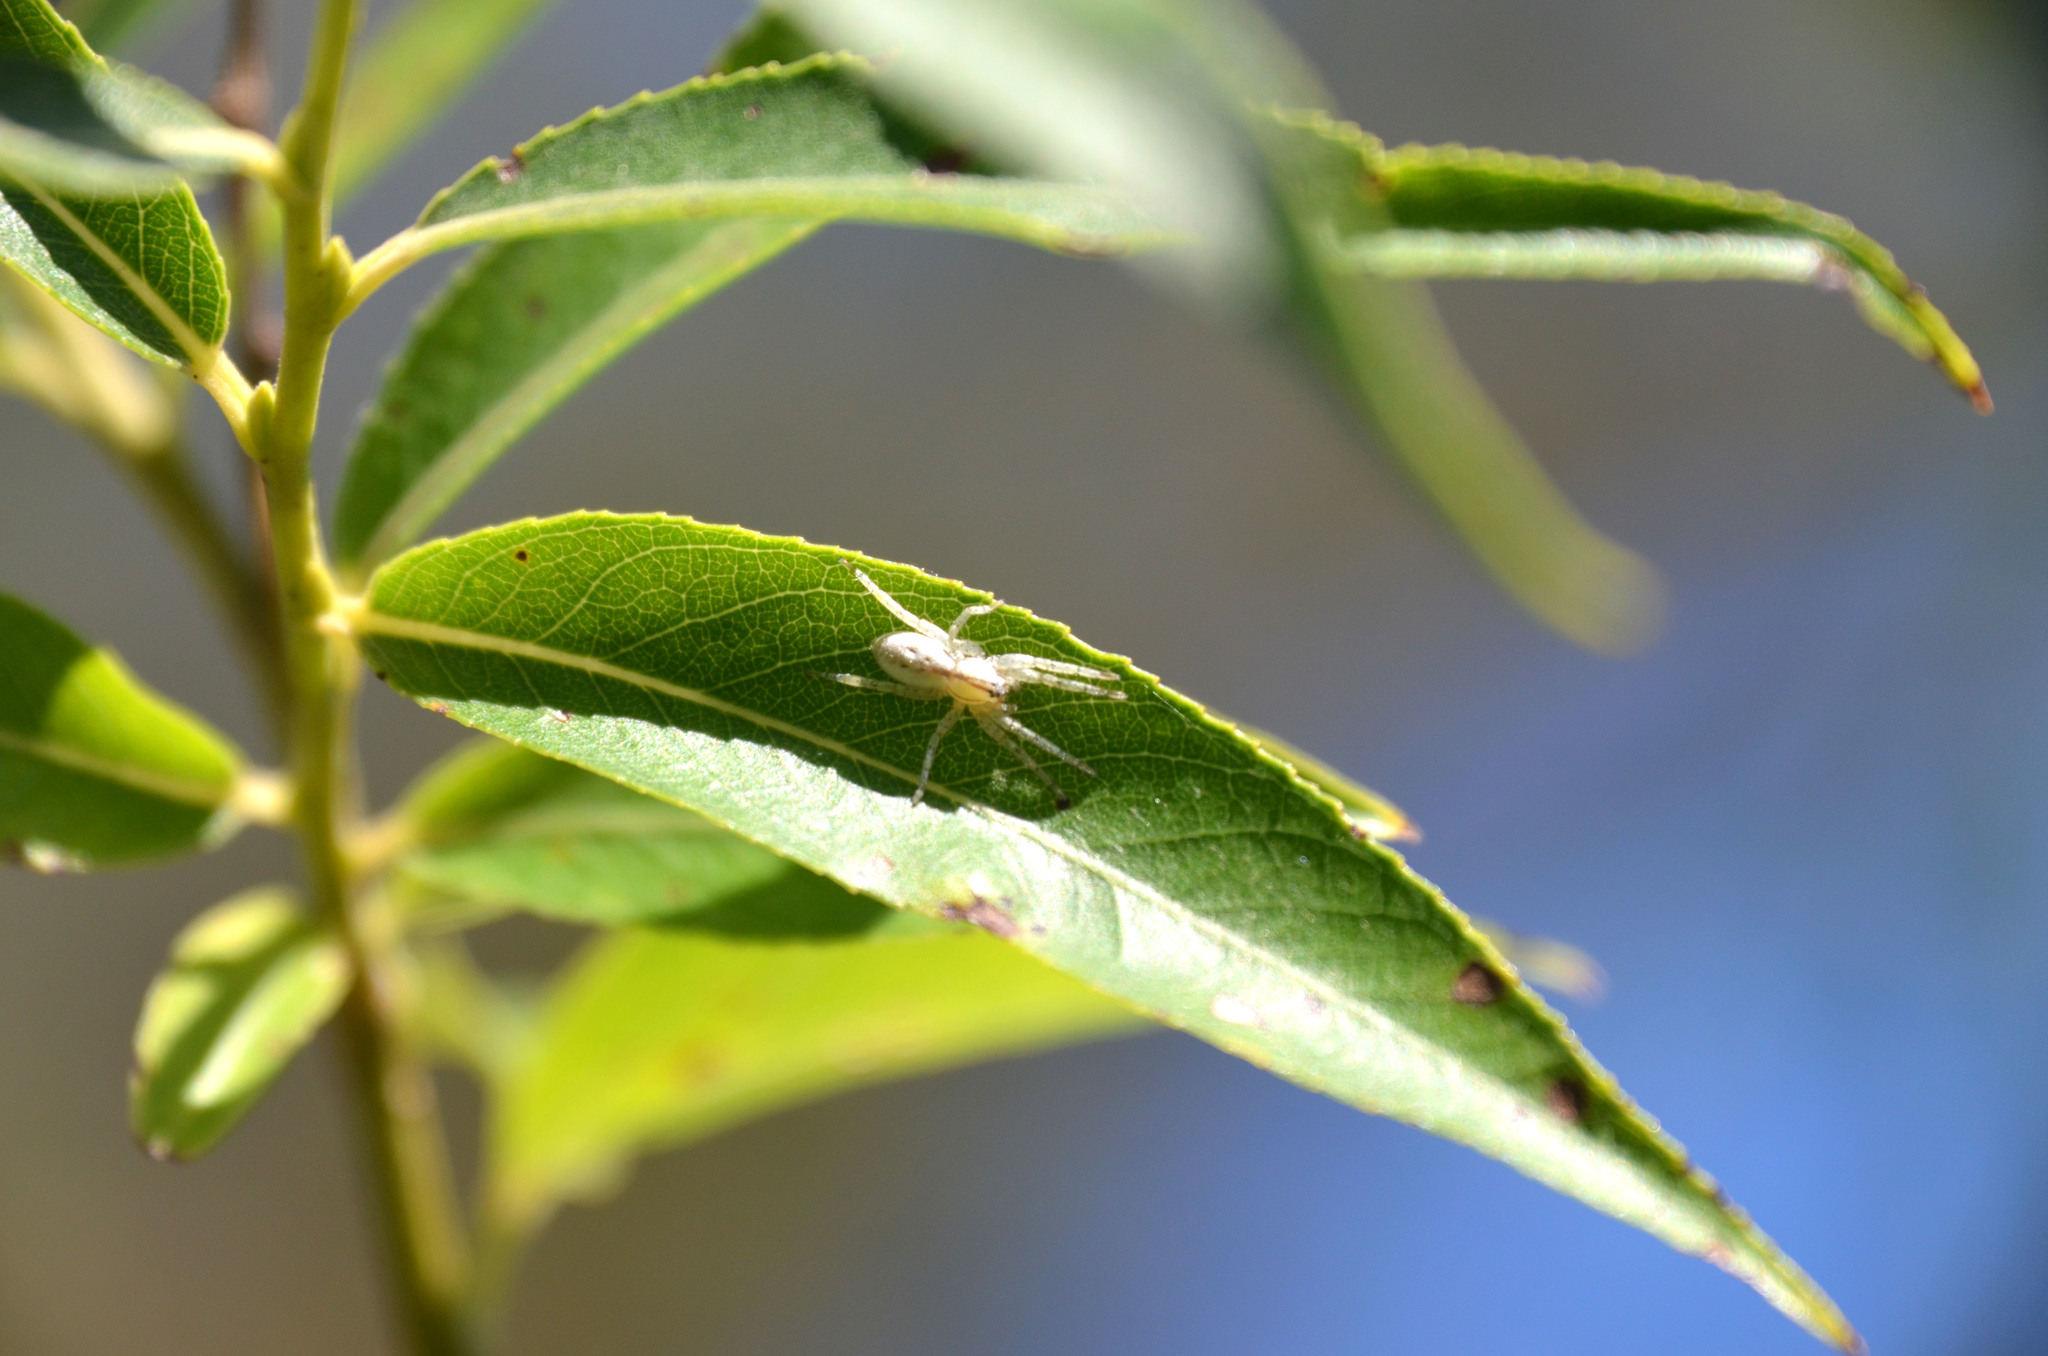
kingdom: Animalia
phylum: Arthropoda
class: Arachnida
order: Araneae
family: Anyphaenidae
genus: Arachosia
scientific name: Arachosia praesignis
